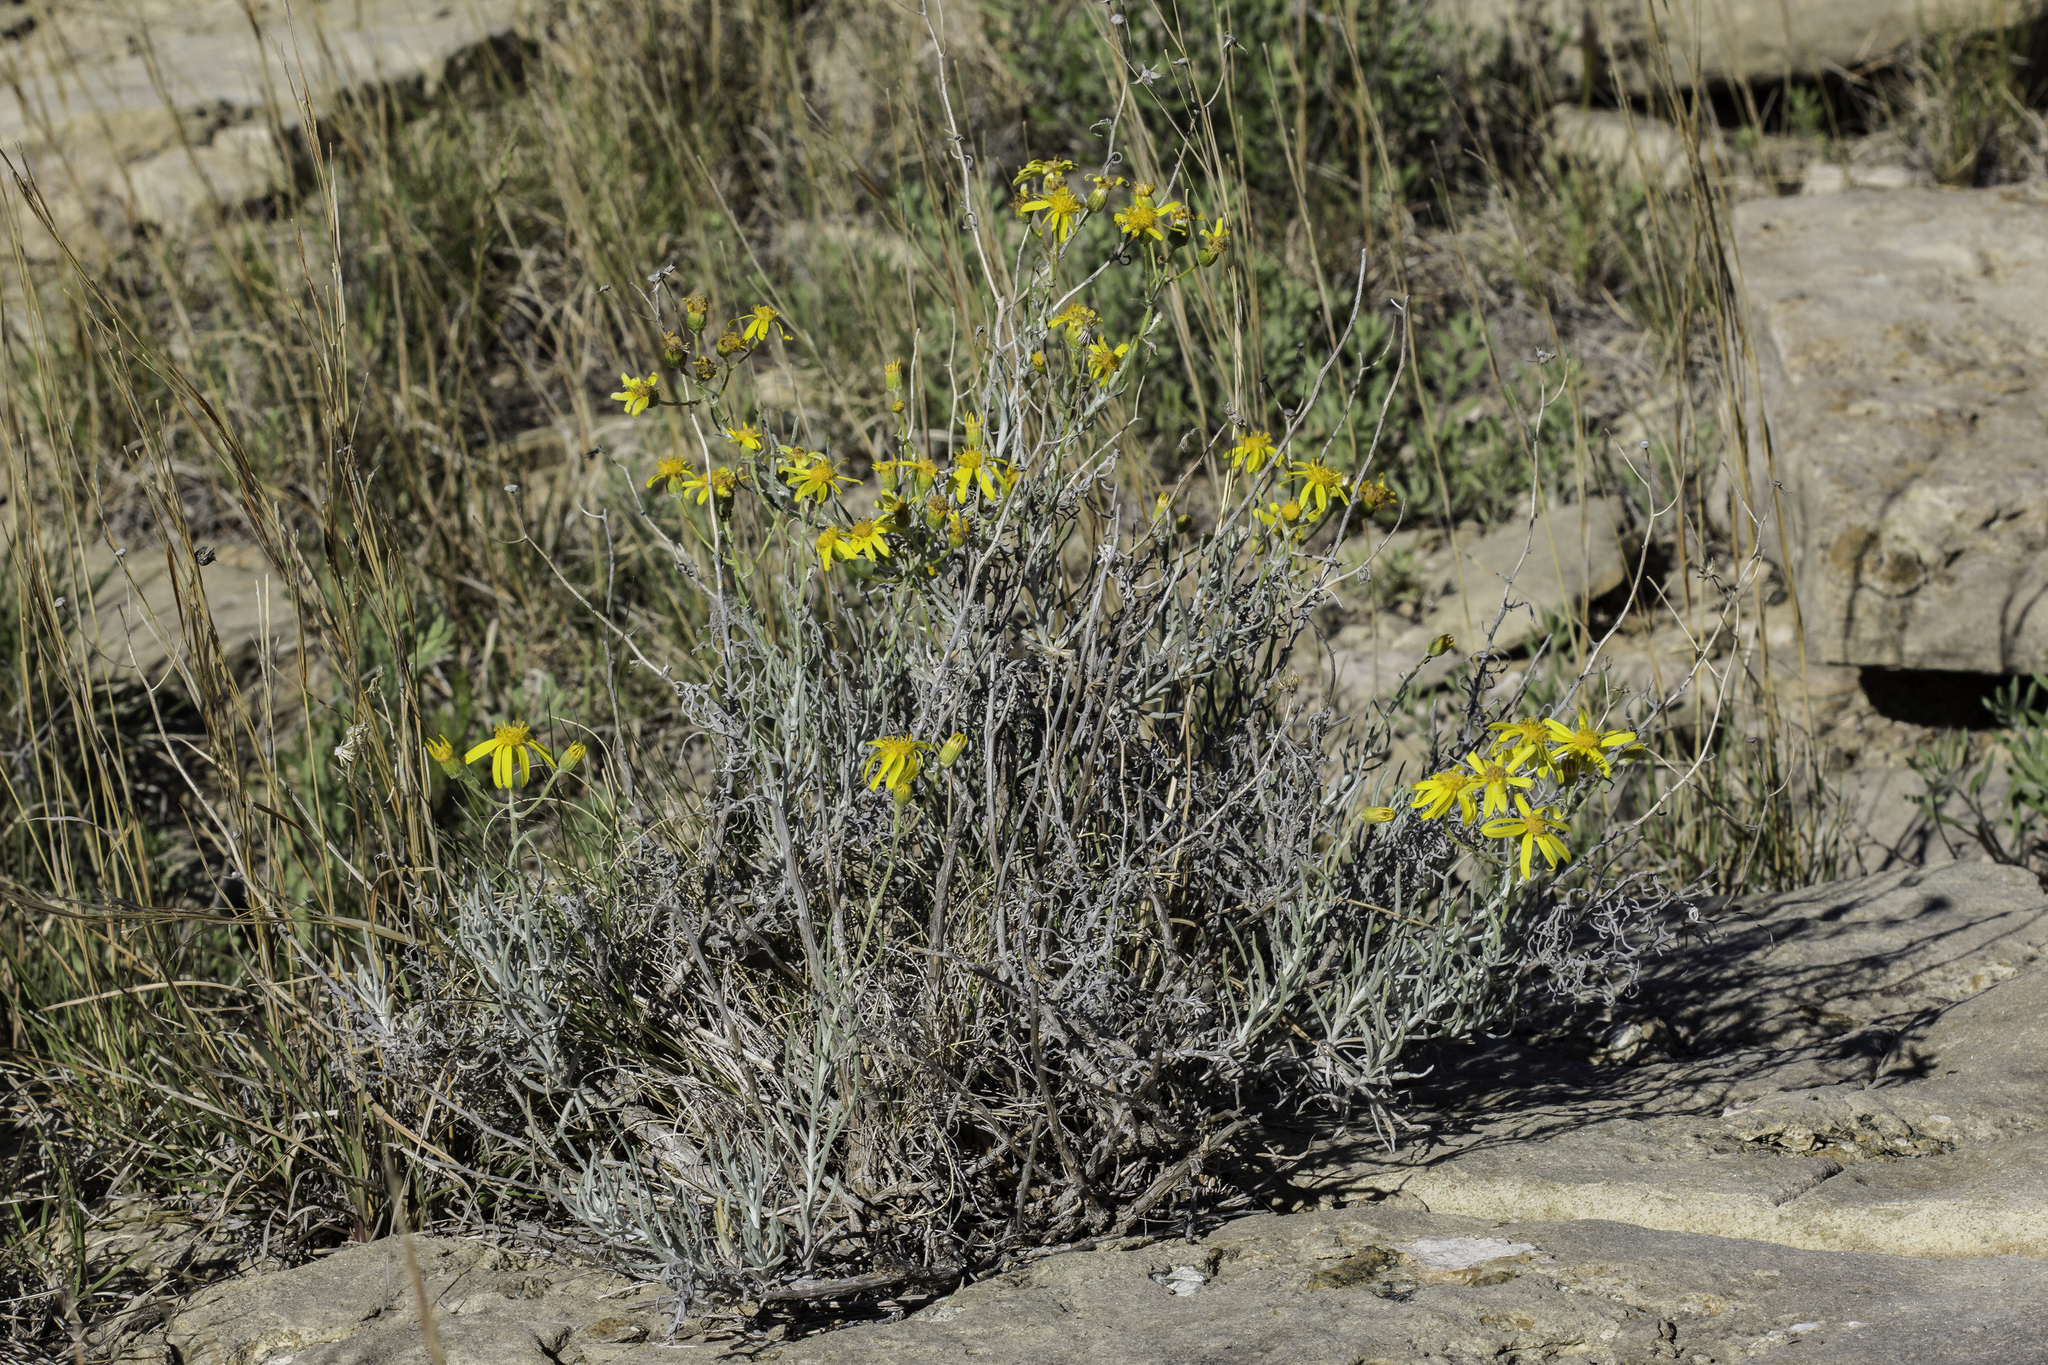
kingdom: Plantae
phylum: Tracheophyta
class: Magnoliopsida
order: Asterales
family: Asteraceae
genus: Senecio
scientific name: Senecio flaccidus
